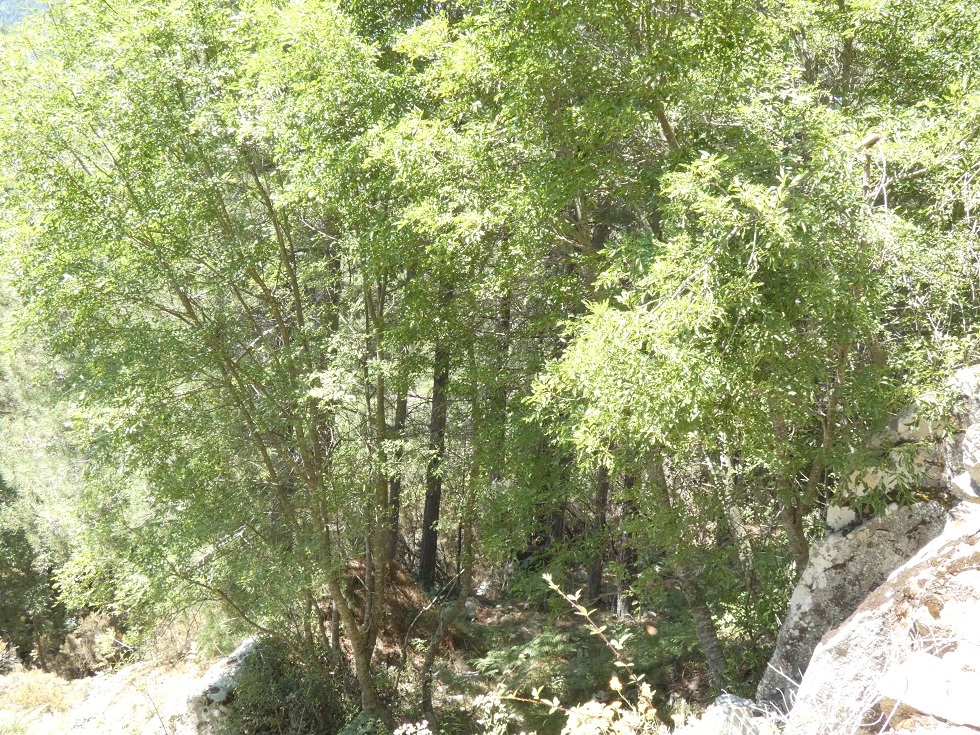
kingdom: Plantae
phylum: Tracheophyta
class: Magnoliopsida
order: Lamiales
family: Oleaceae
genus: Fraxinus
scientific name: Fraxinus ornus
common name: Manna ash
